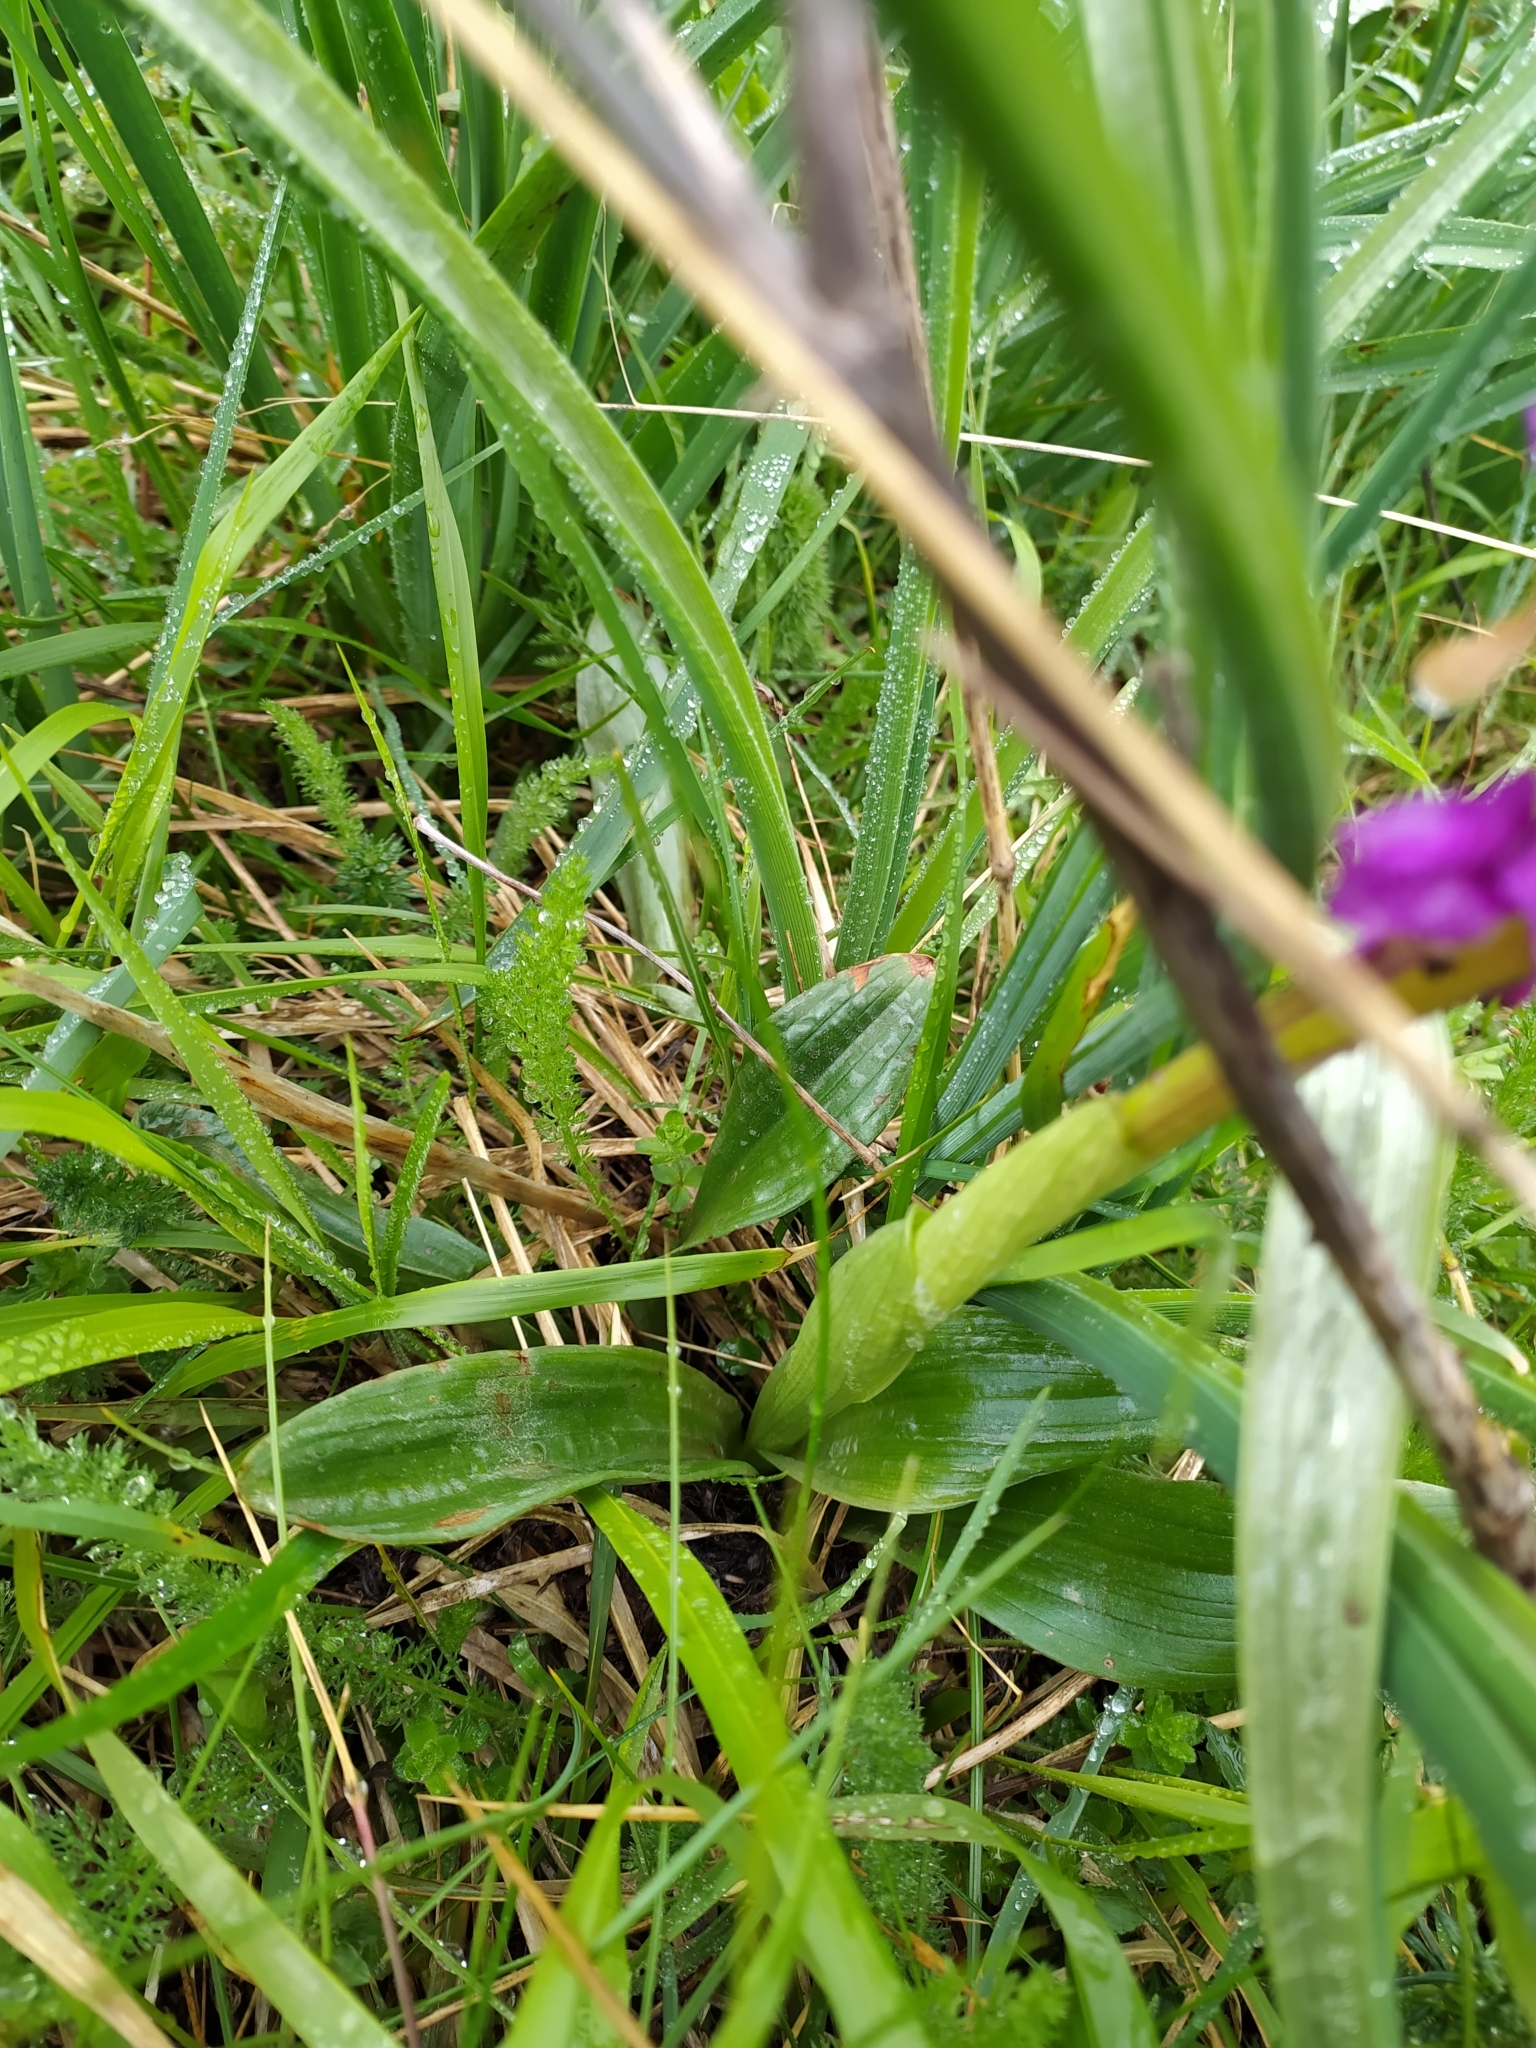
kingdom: Plantae
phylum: Tracheophyta
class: Liliopsida
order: Asparagales
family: Orchidaceae
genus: Orchis
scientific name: Orchis mascula
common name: Early-purple orchid
